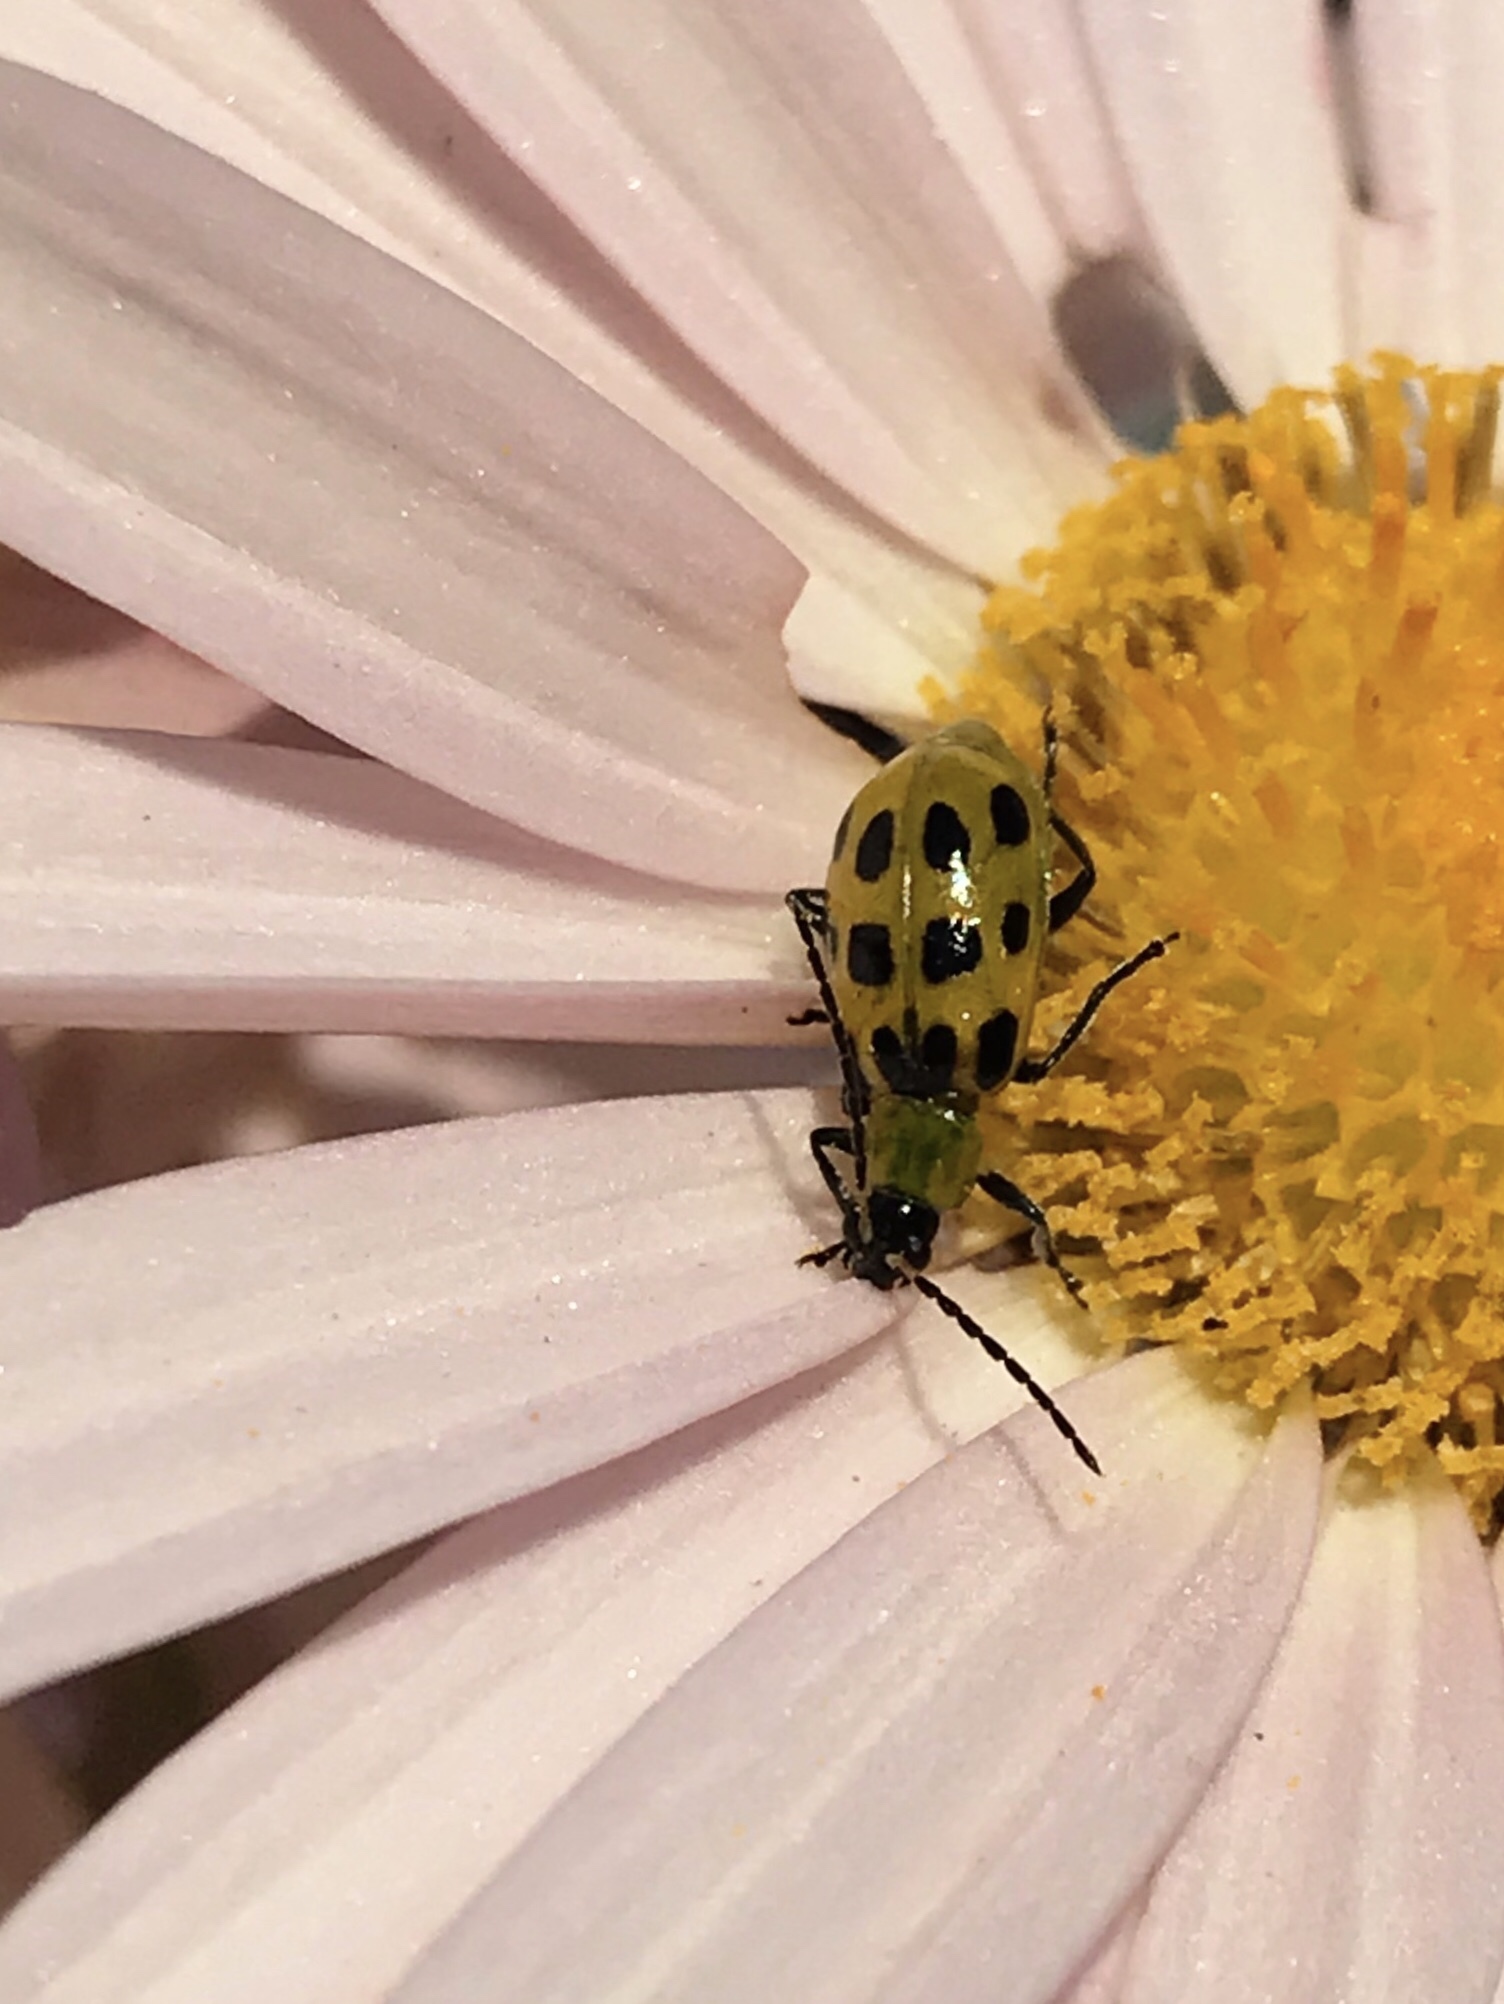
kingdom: Animalia
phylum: Arthropoda
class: Insecta
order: Coleoptera
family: Chrysomelidae
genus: Diabrotica
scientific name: Diabrotica undecimpunctata
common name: Spotted cucumber beetle
